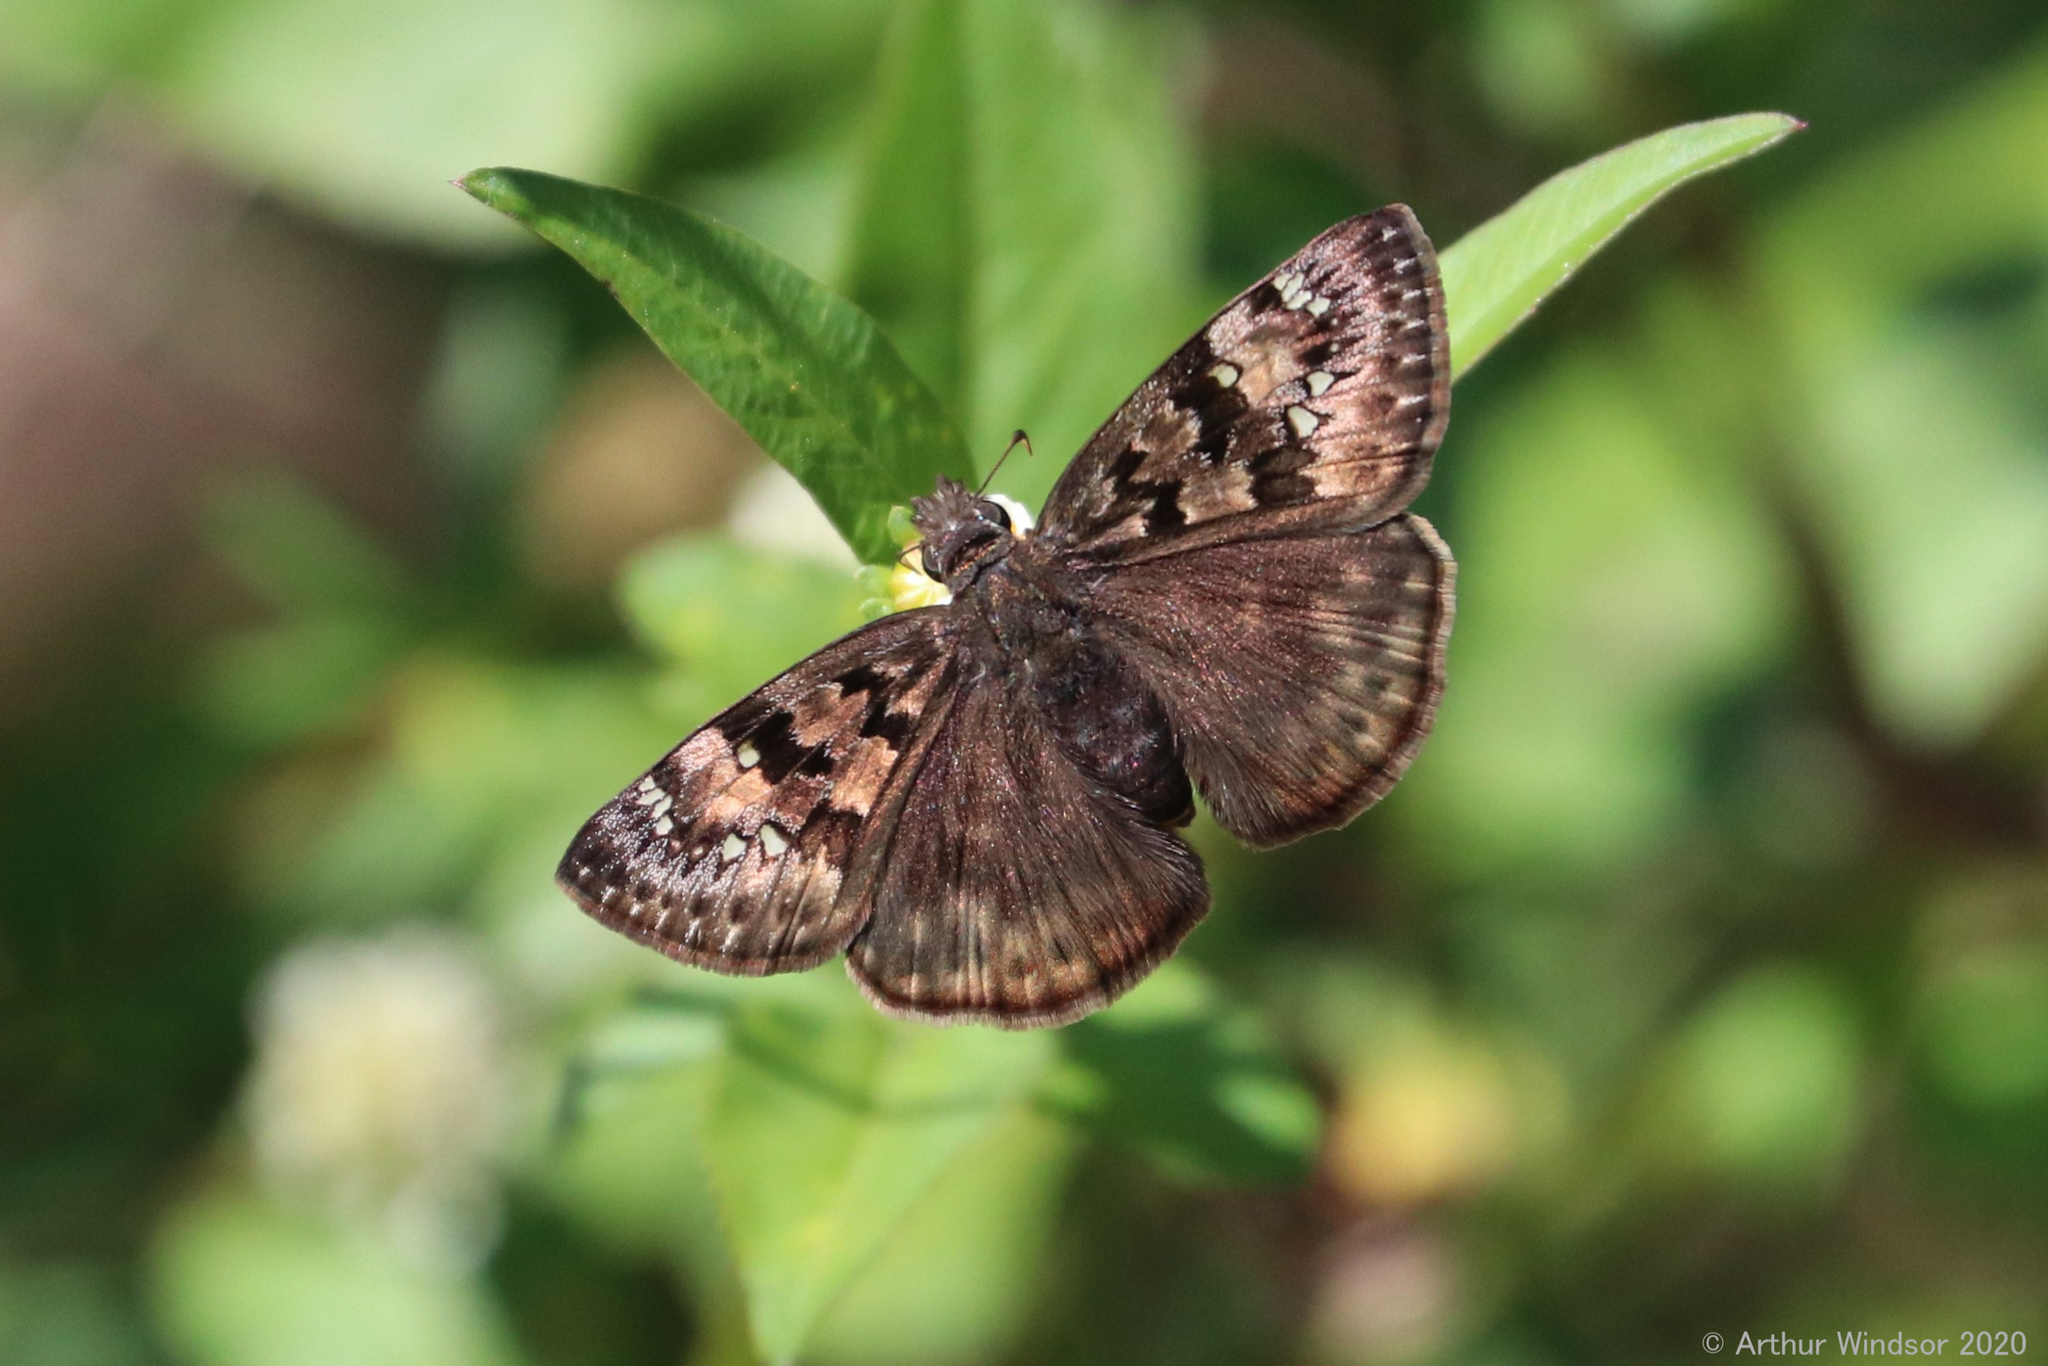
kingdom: Animalia
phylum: Arthropoda
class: Insecta
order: Lepidoptera
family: Hesperiidae
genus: Erynnis
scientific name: Erynnis horatius
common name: Horace's duskywing
